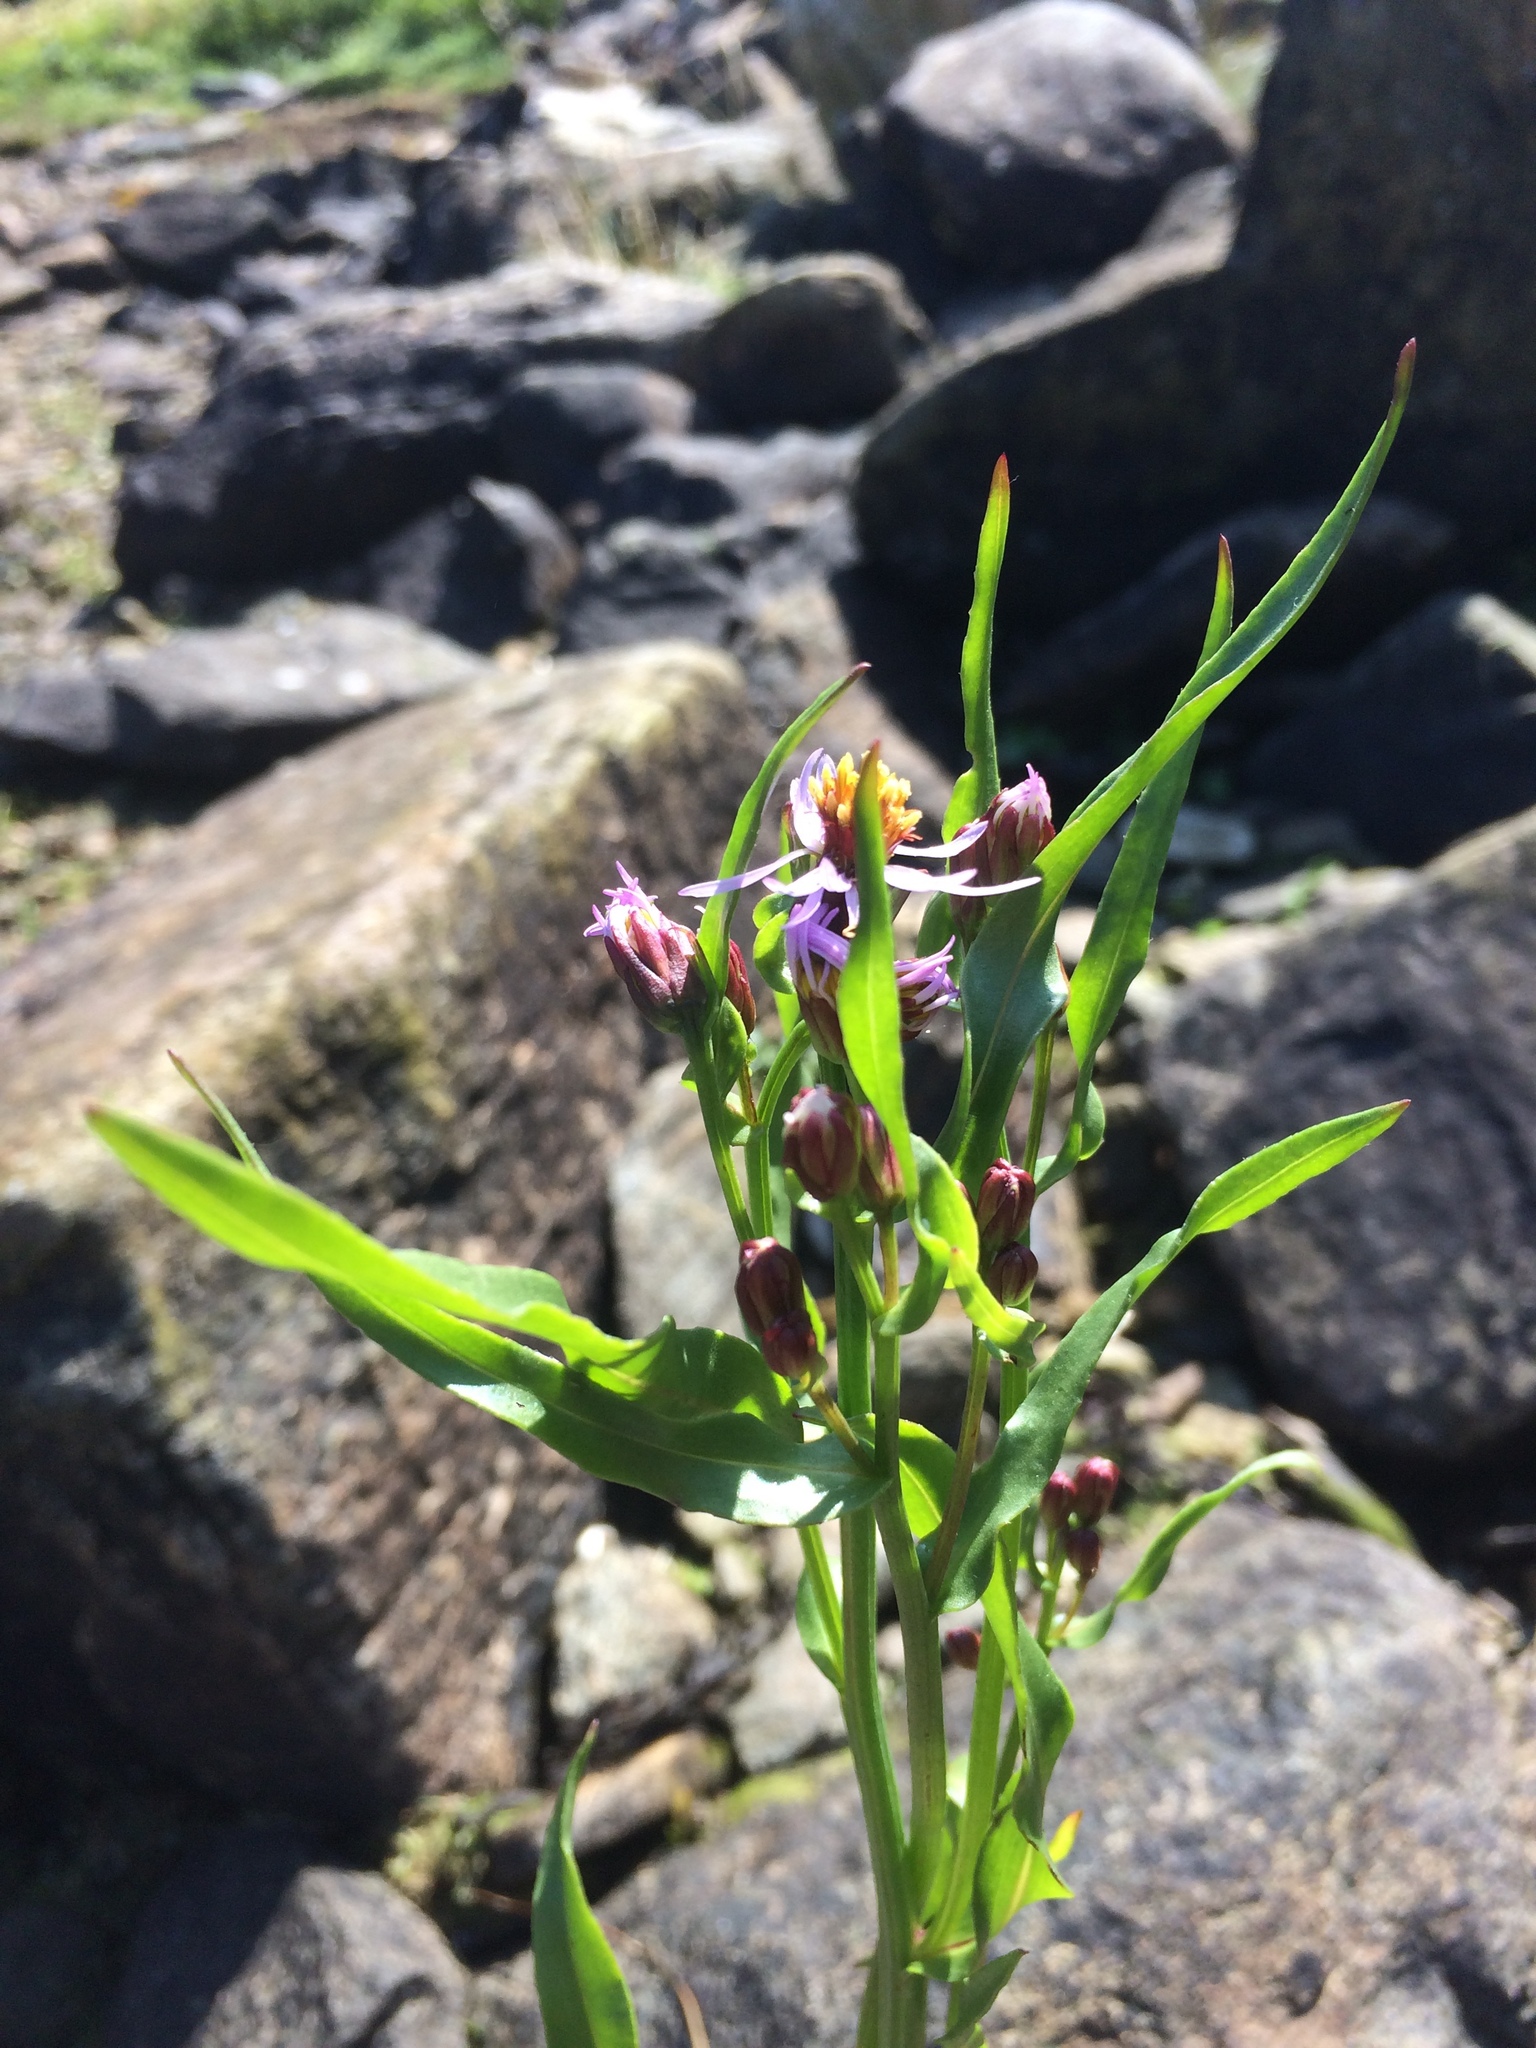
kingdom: Plantae
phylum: Tracheophyta
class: Magnoliopsida
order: Asterales
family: Asteraceae
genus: Tripolium
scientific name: Tripolium pannonicum
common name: Sea aster
